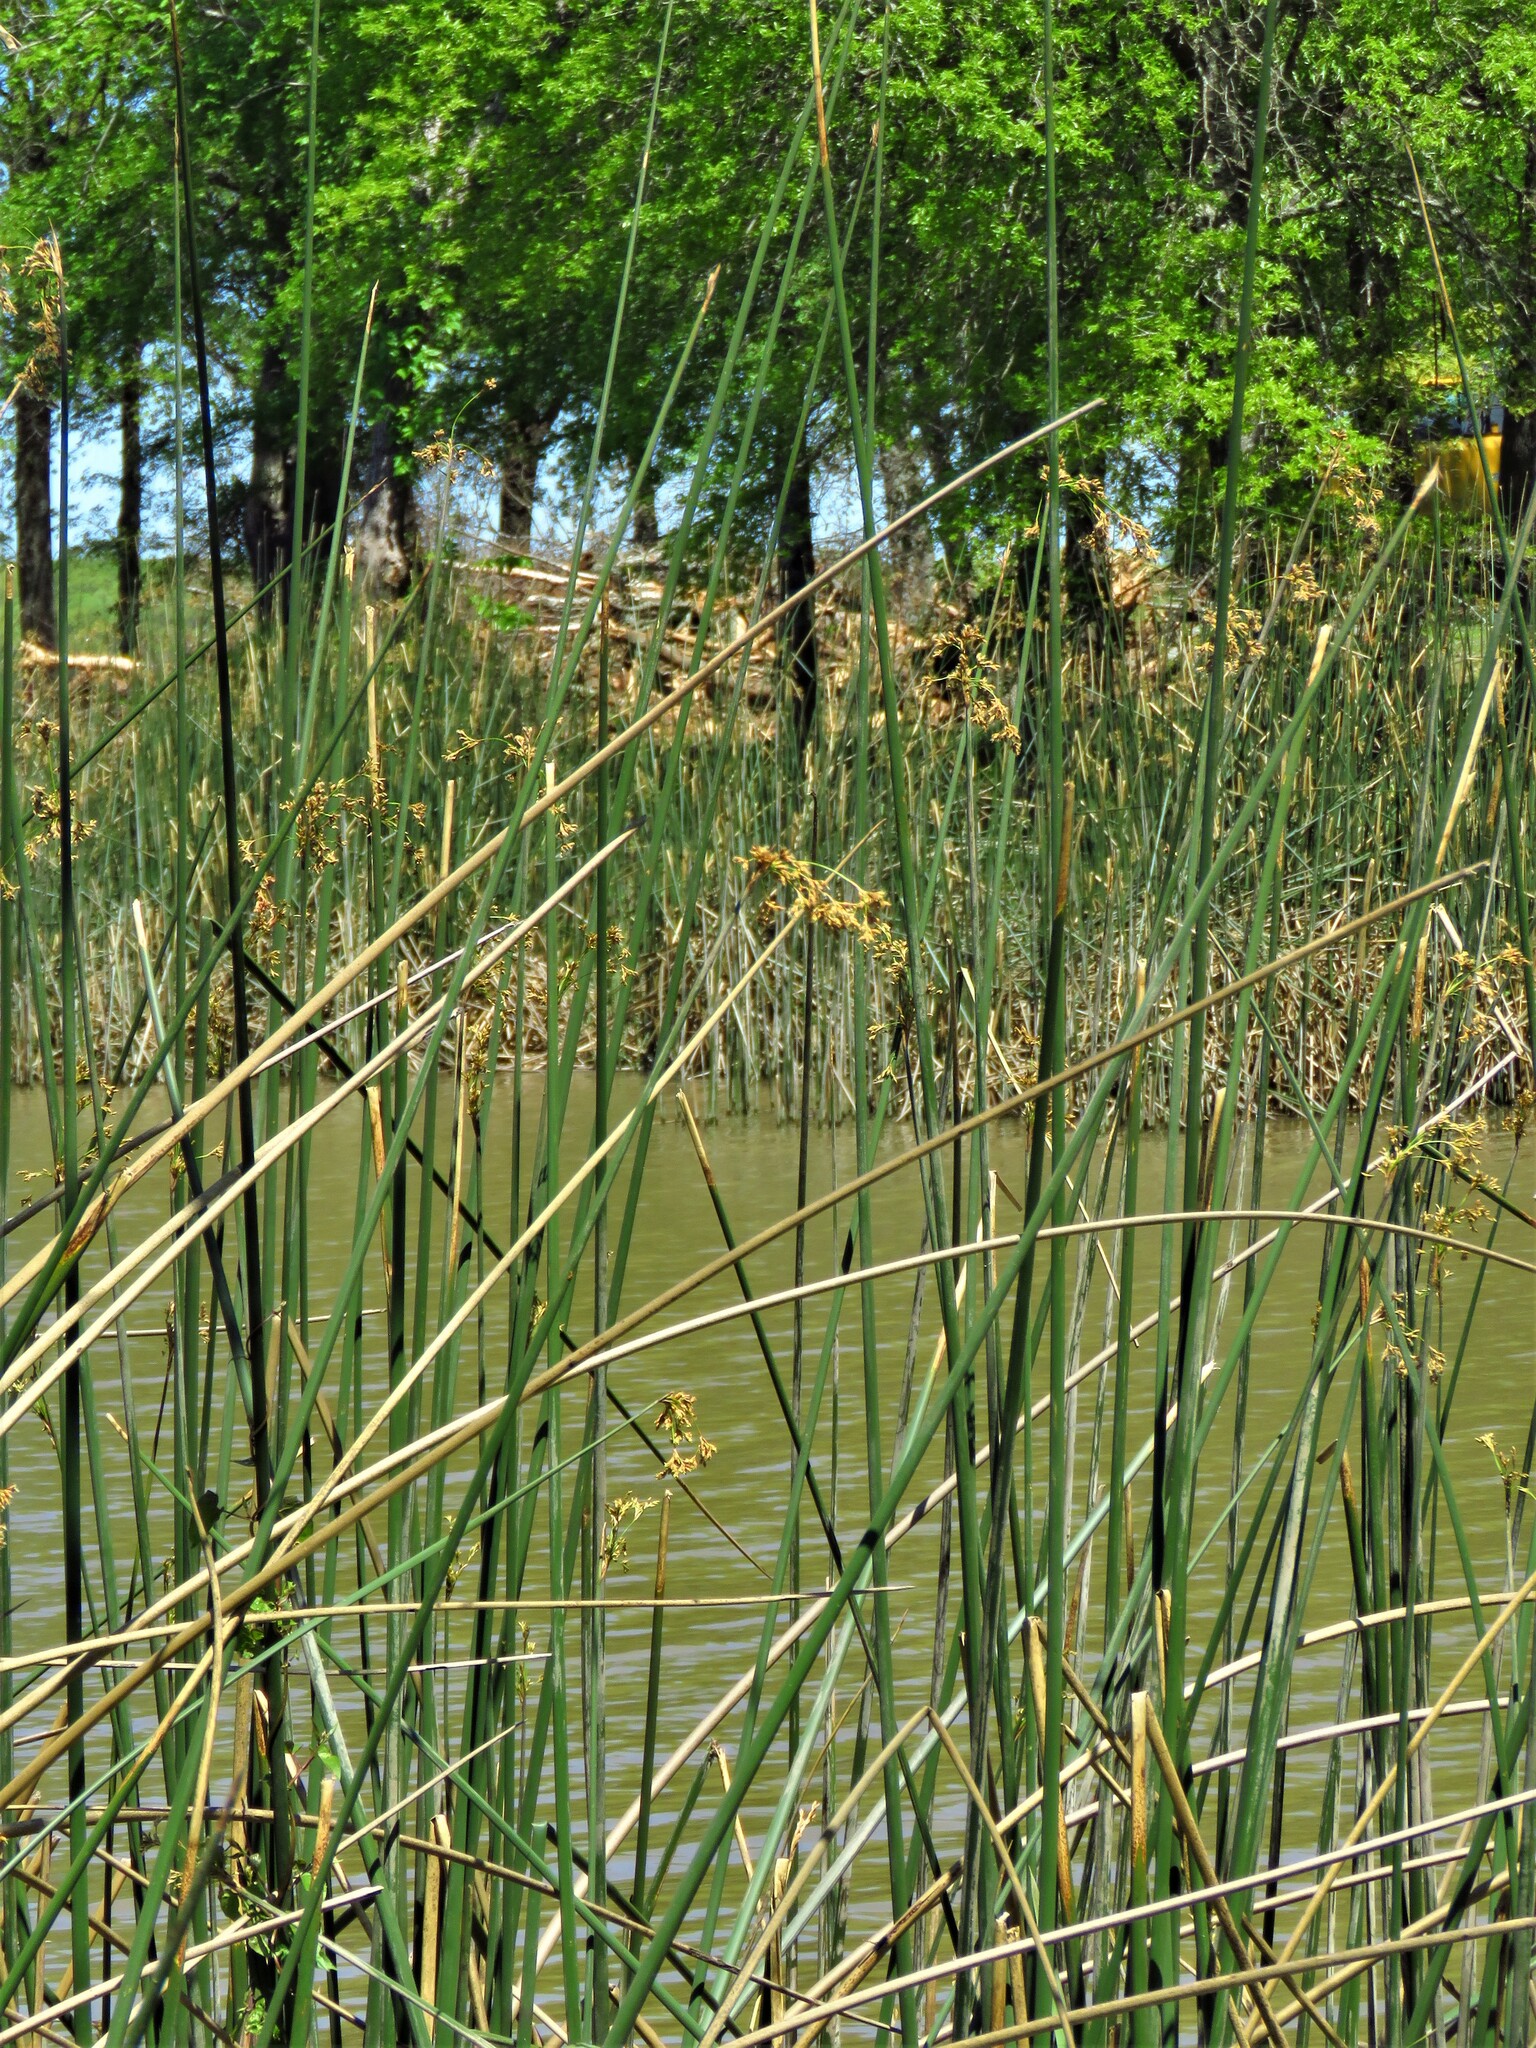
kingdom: Plantae
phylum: Tracheophyta
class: Liliopsida
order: Poales
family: Juncaceae
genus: Juncus
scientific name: Juncus effusus
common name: Soft rush
